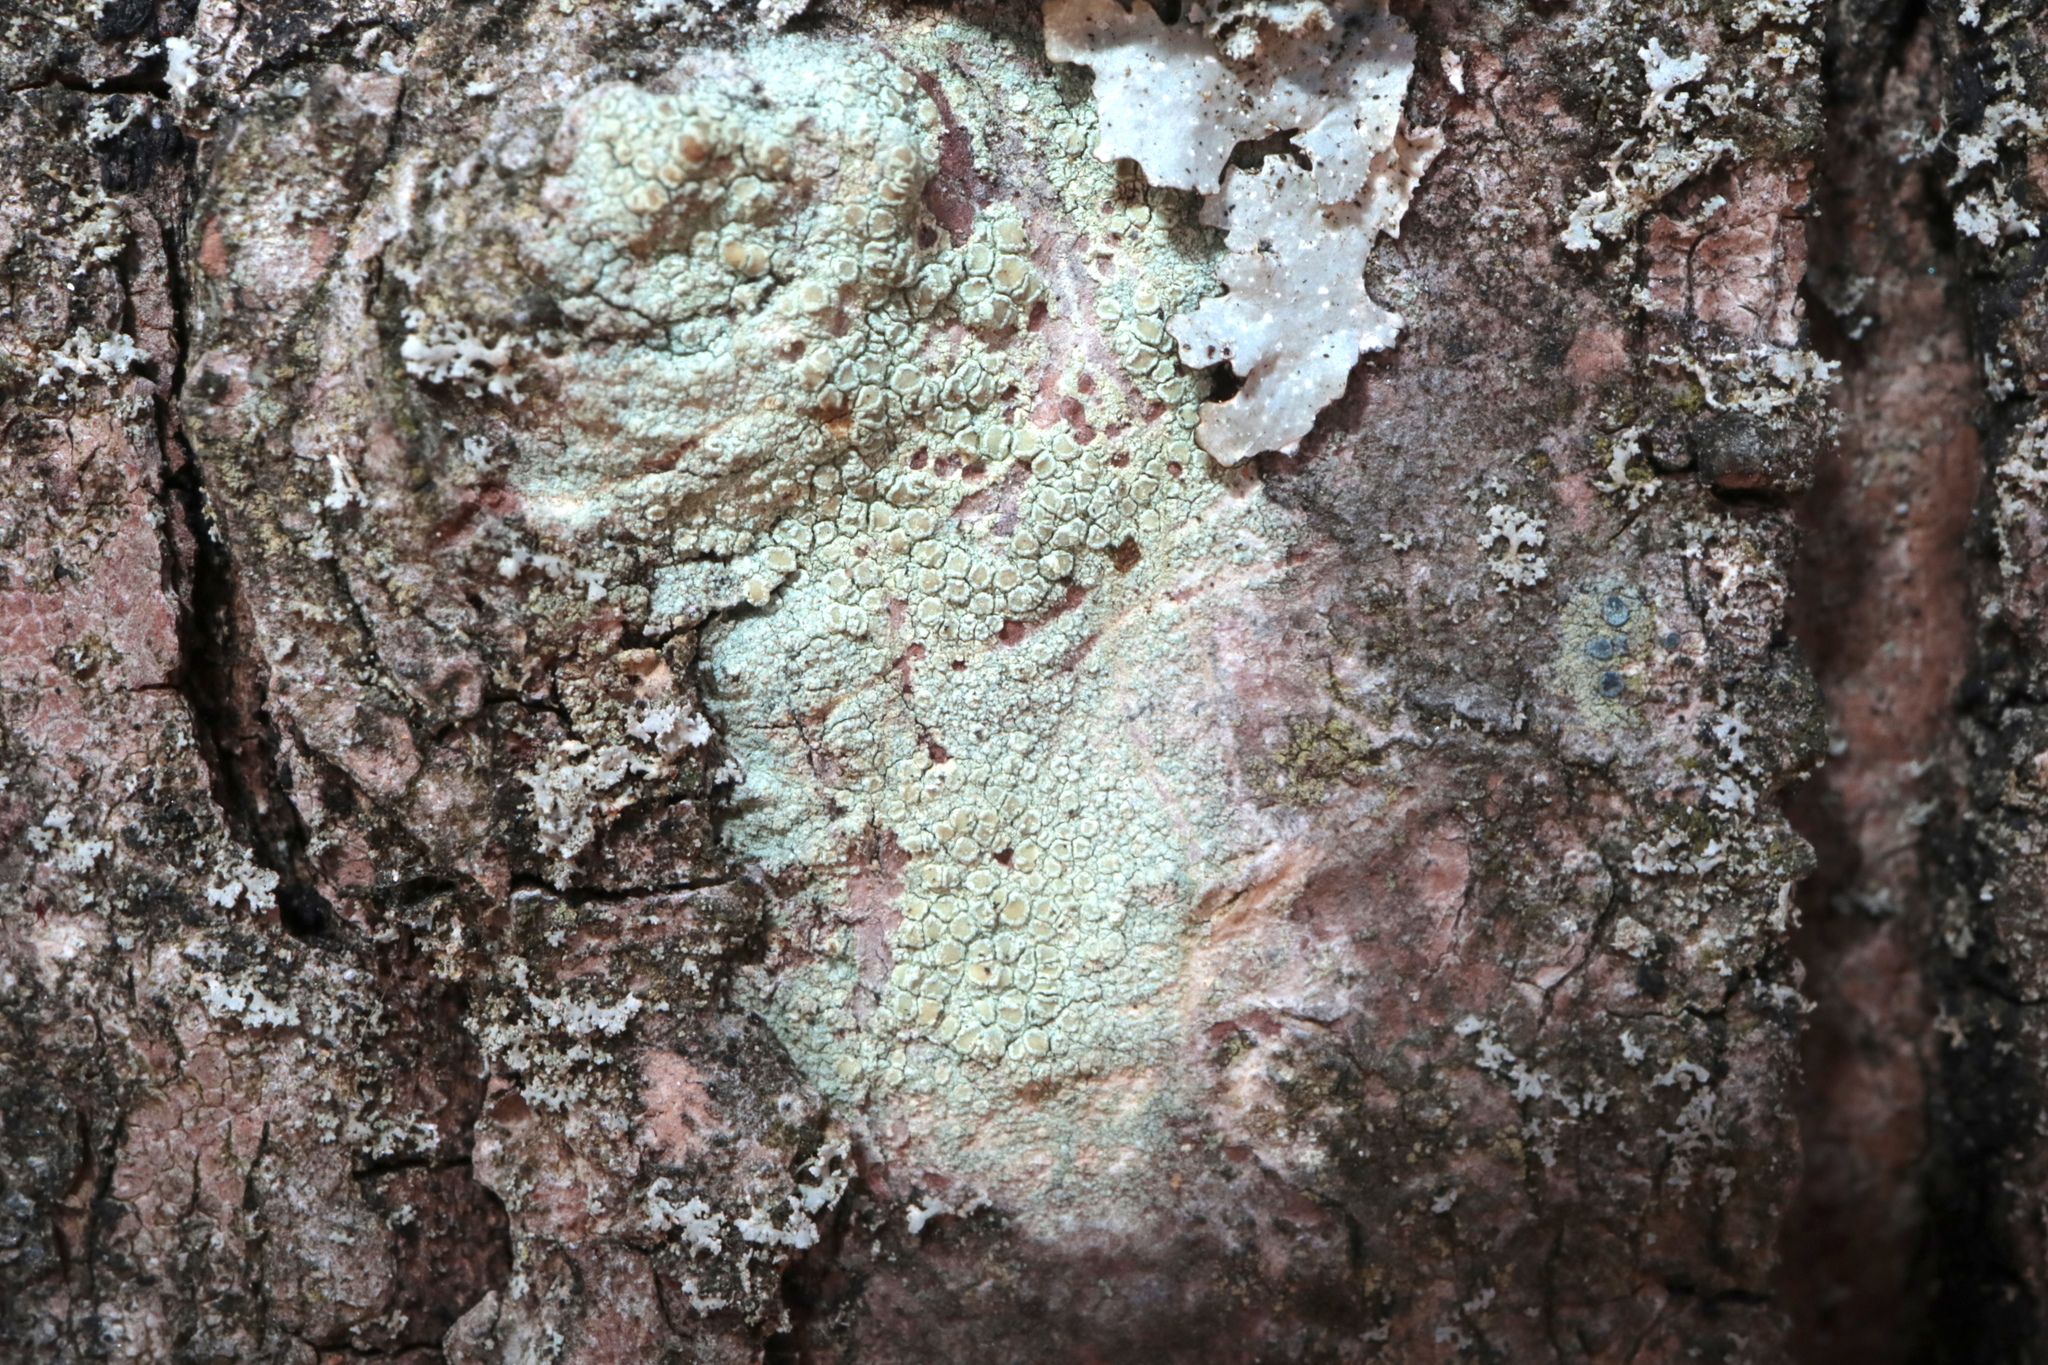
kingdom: Fungi
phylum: Ascomycota
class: Lecanoromycetes
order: Lecanorales
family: Lecanoraceae
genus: Lecanora
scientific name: Lecanora strobilina
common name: Mealy rim-lichen
